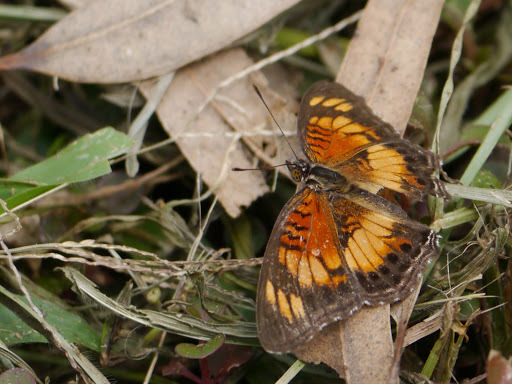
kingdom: Animalia
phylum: Arthropoda
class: Insecta
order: Lepidoptera
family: Nymphalidae
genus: Junonia
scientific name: Junonia sophia
